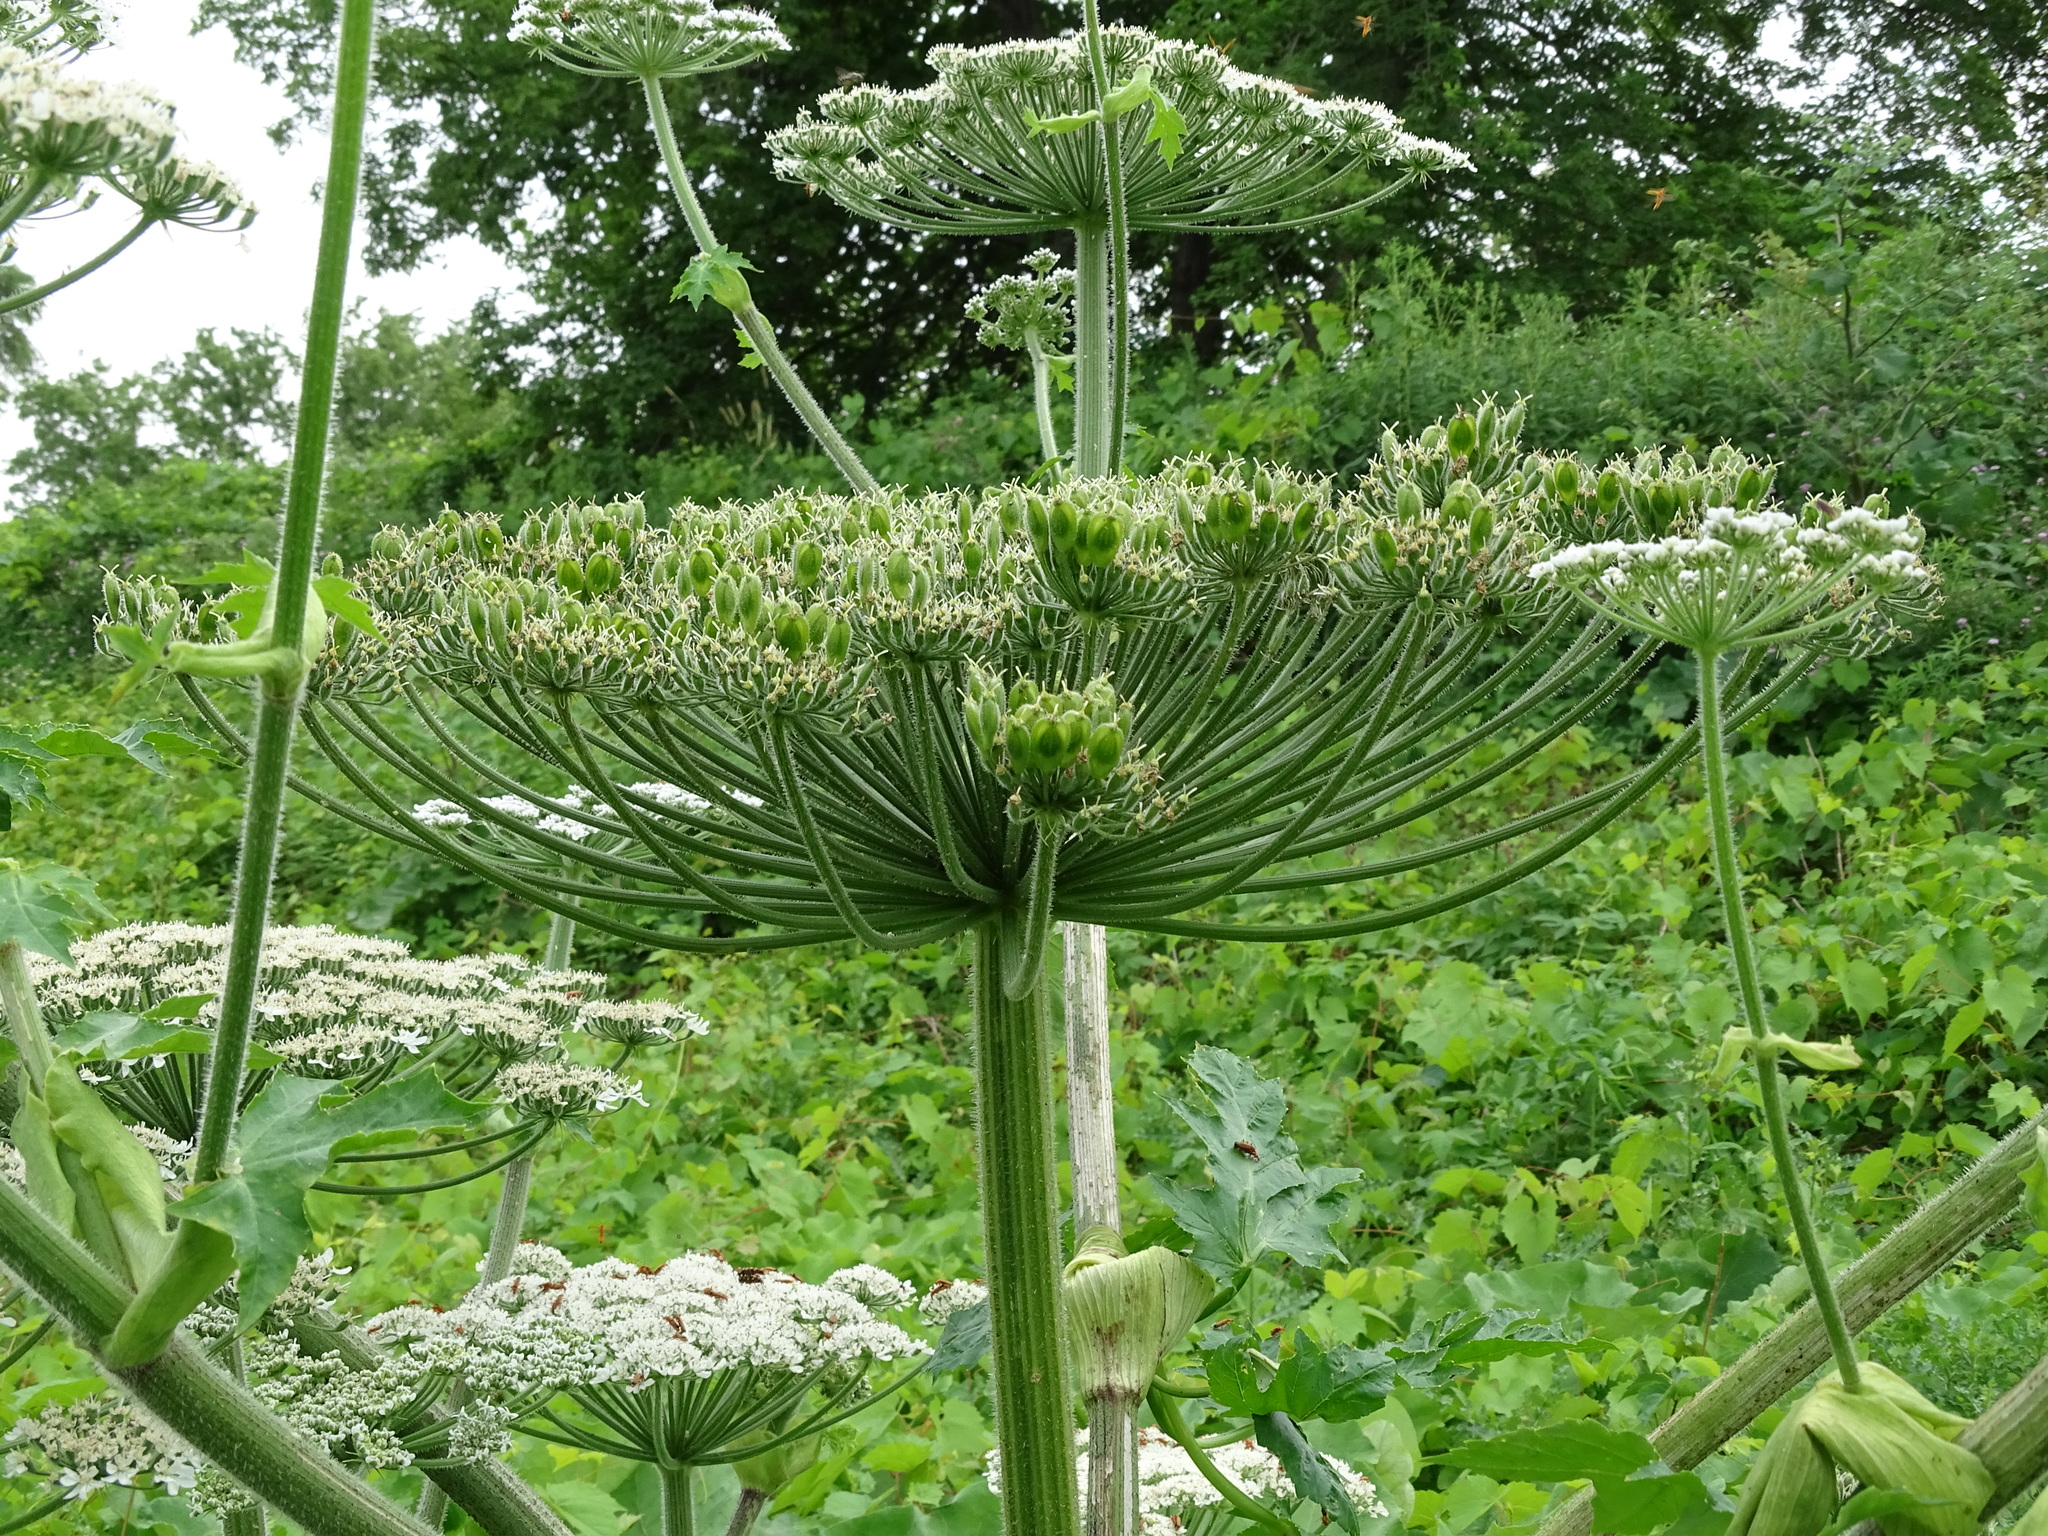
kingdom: Plantae
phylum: Tracheophyta
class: Magnoliopsida
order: Apiales
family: Apiaceae
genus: Heracleum
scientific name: Heracleum mantegazzianum
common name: Giant hogweed
